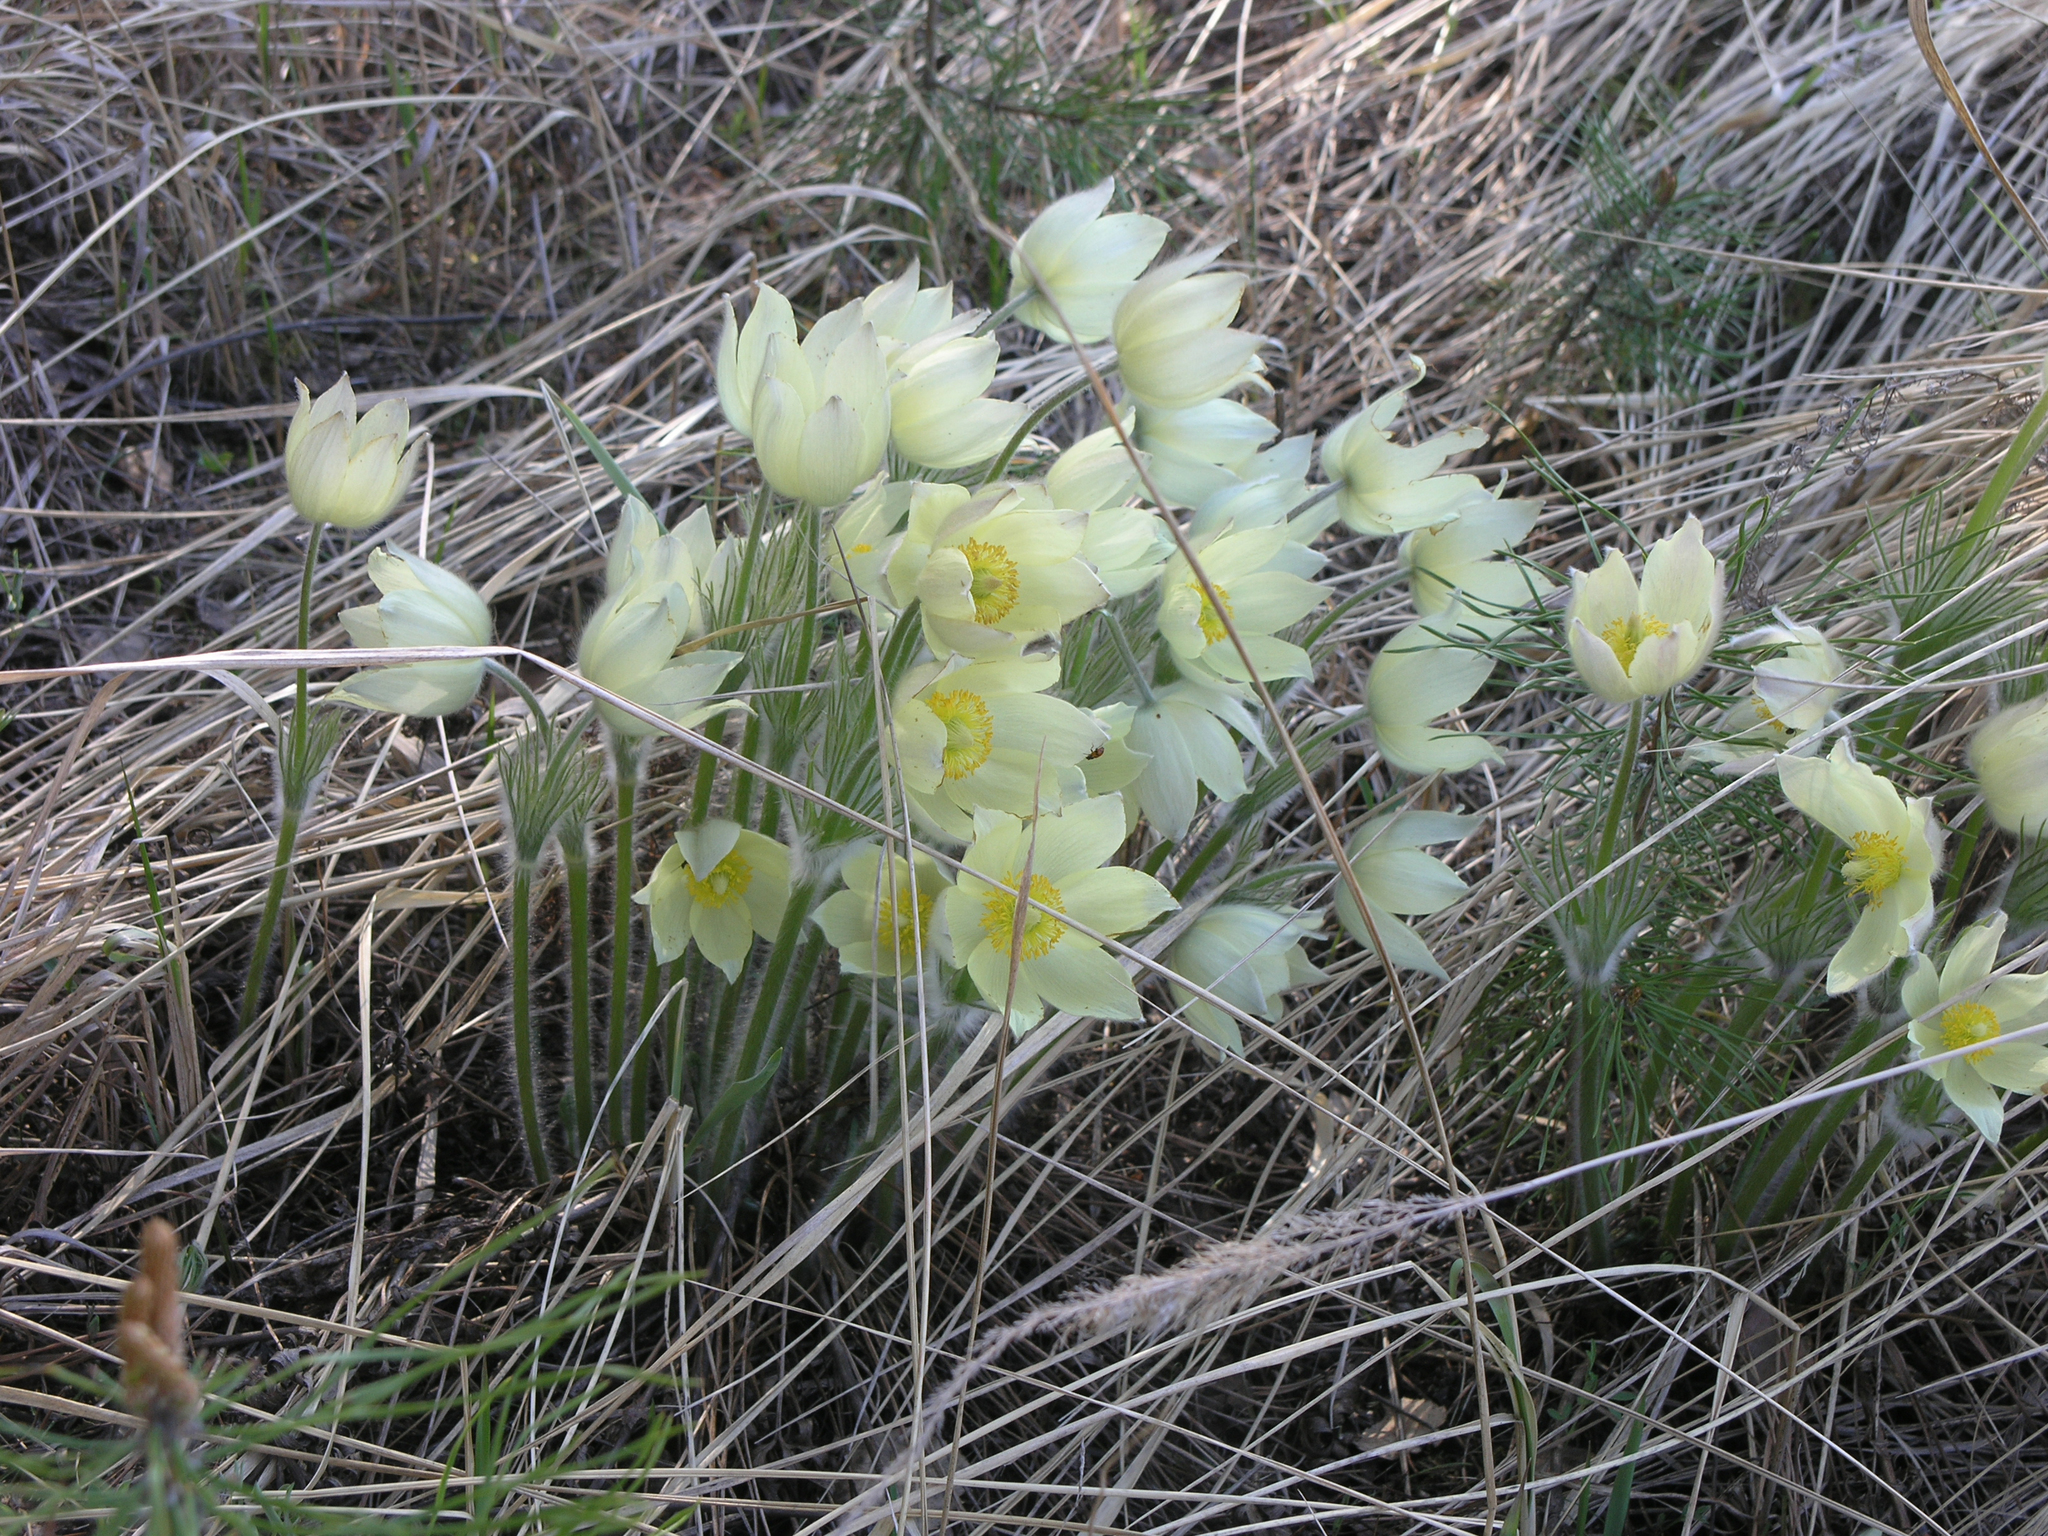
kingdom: Plantae
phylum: Tracheophyta
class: Magnoliopsida
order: Ranunculales
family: Ranunculaceae
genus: Pulsatilla
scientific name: Pulsatilla patens
